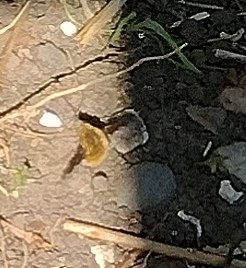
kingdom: Animalia
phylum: Arthropoda
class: Insecta
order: Diptera
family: Bombyliidae
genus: Bombylius
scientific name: Bombylius major
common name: Bee fly
